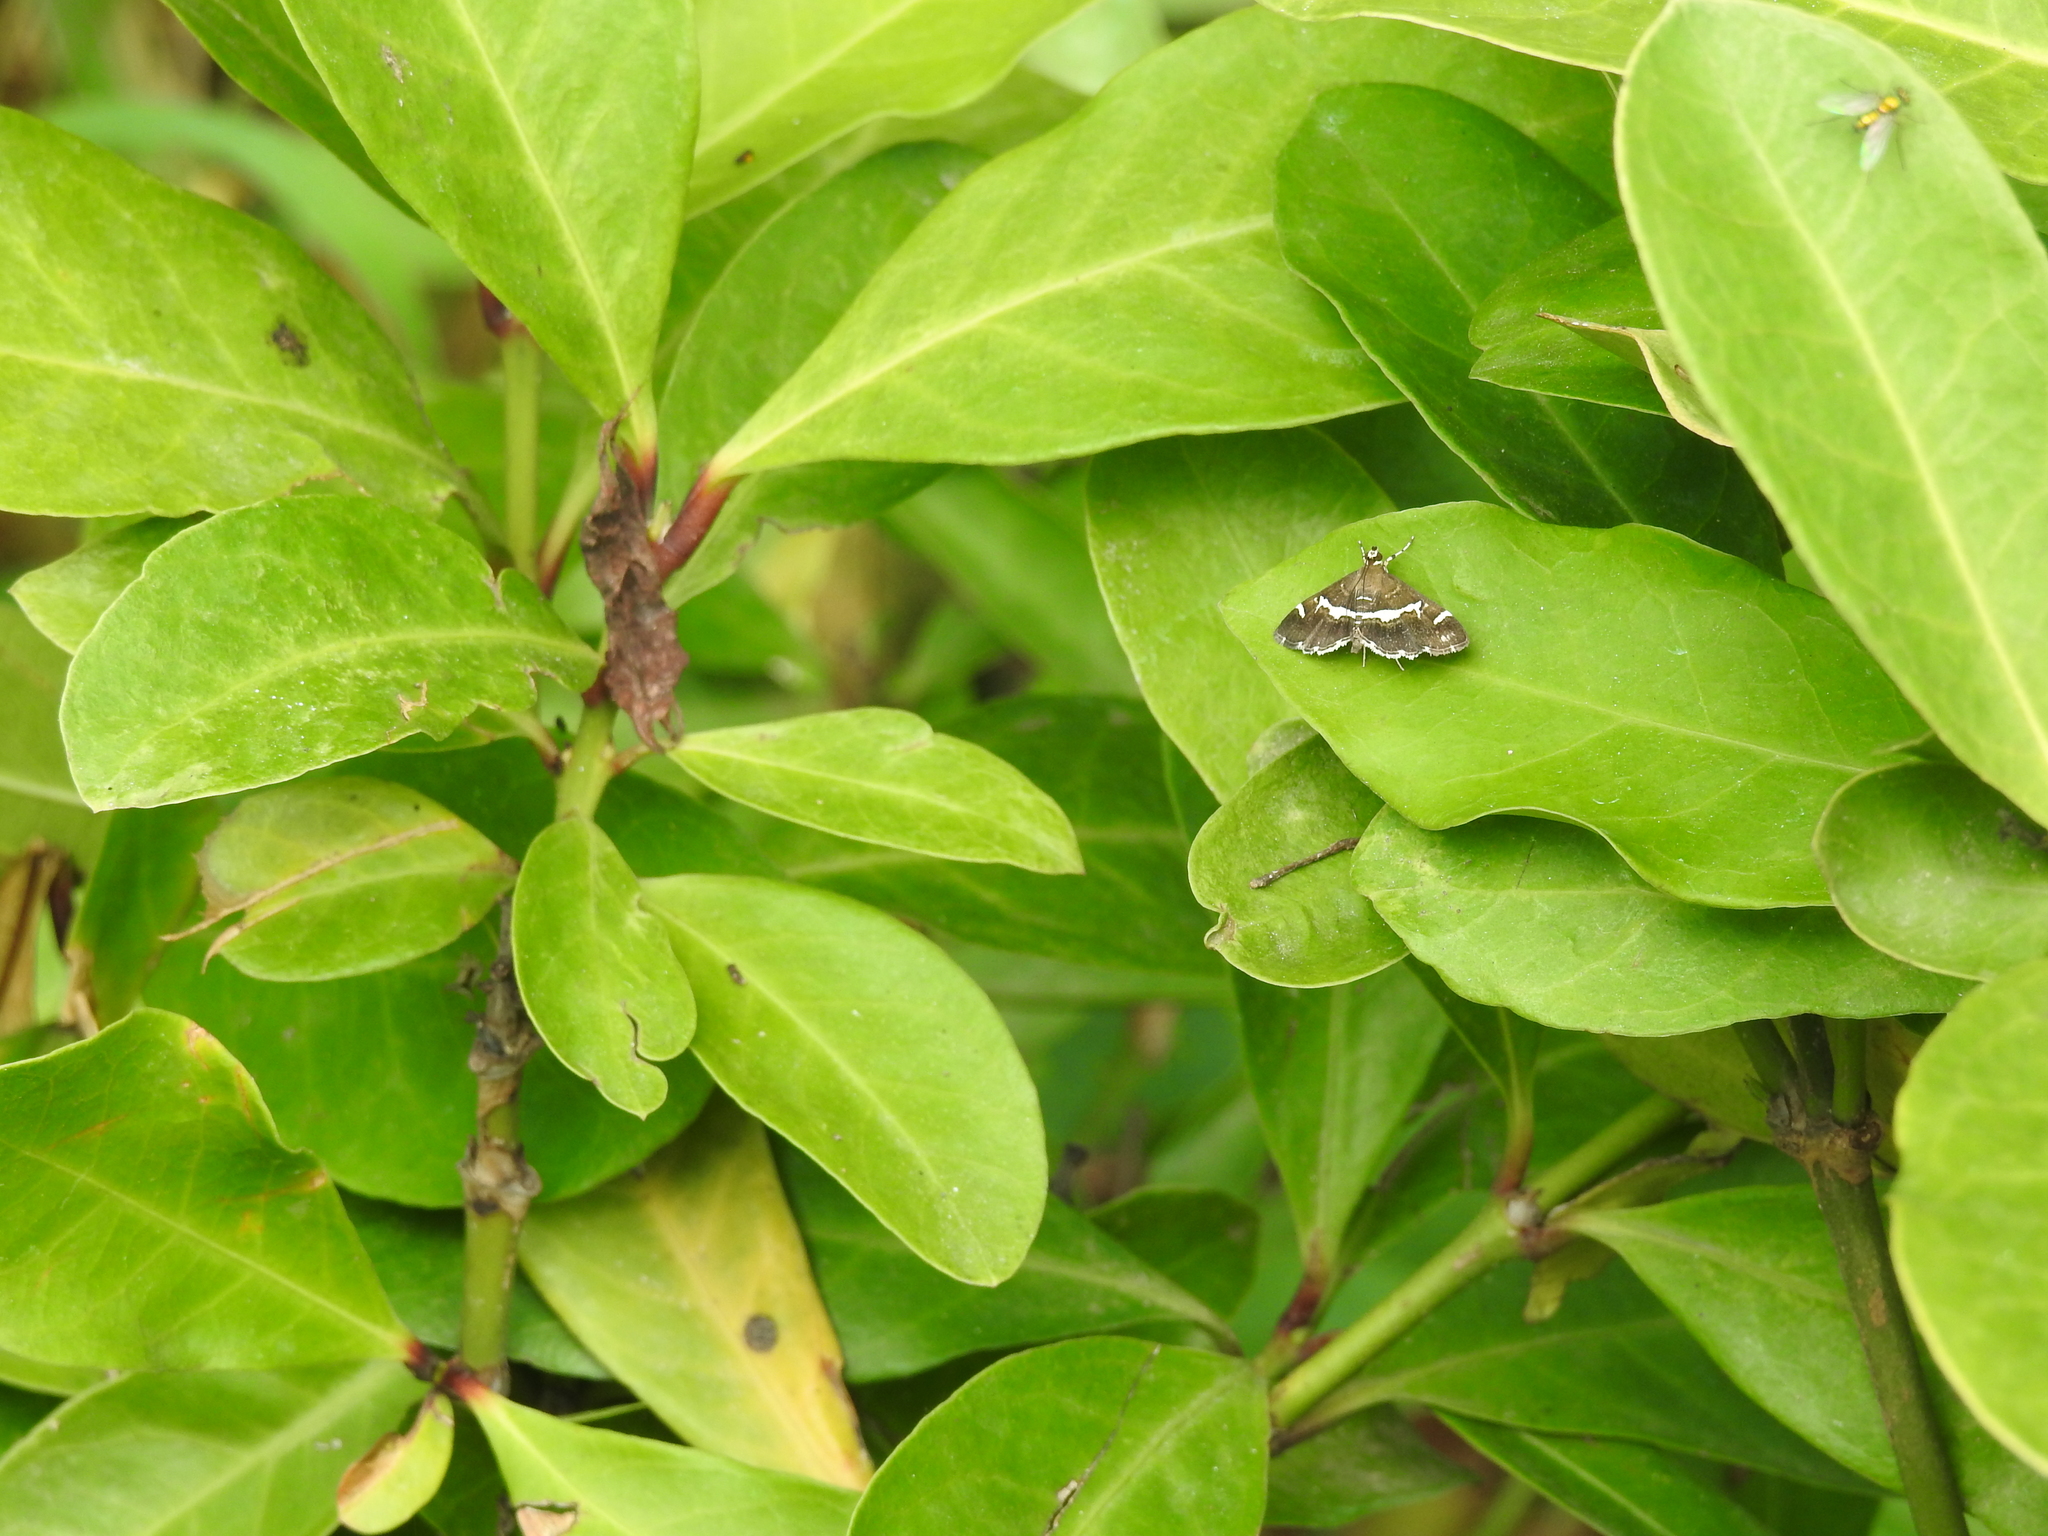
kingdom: Animalia
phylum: Arthropoda
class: Insecta
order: Lepidoptera
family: Crambidae
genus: Spoladea
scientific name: Spoladea recurvalis
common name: Beet webworm moth
